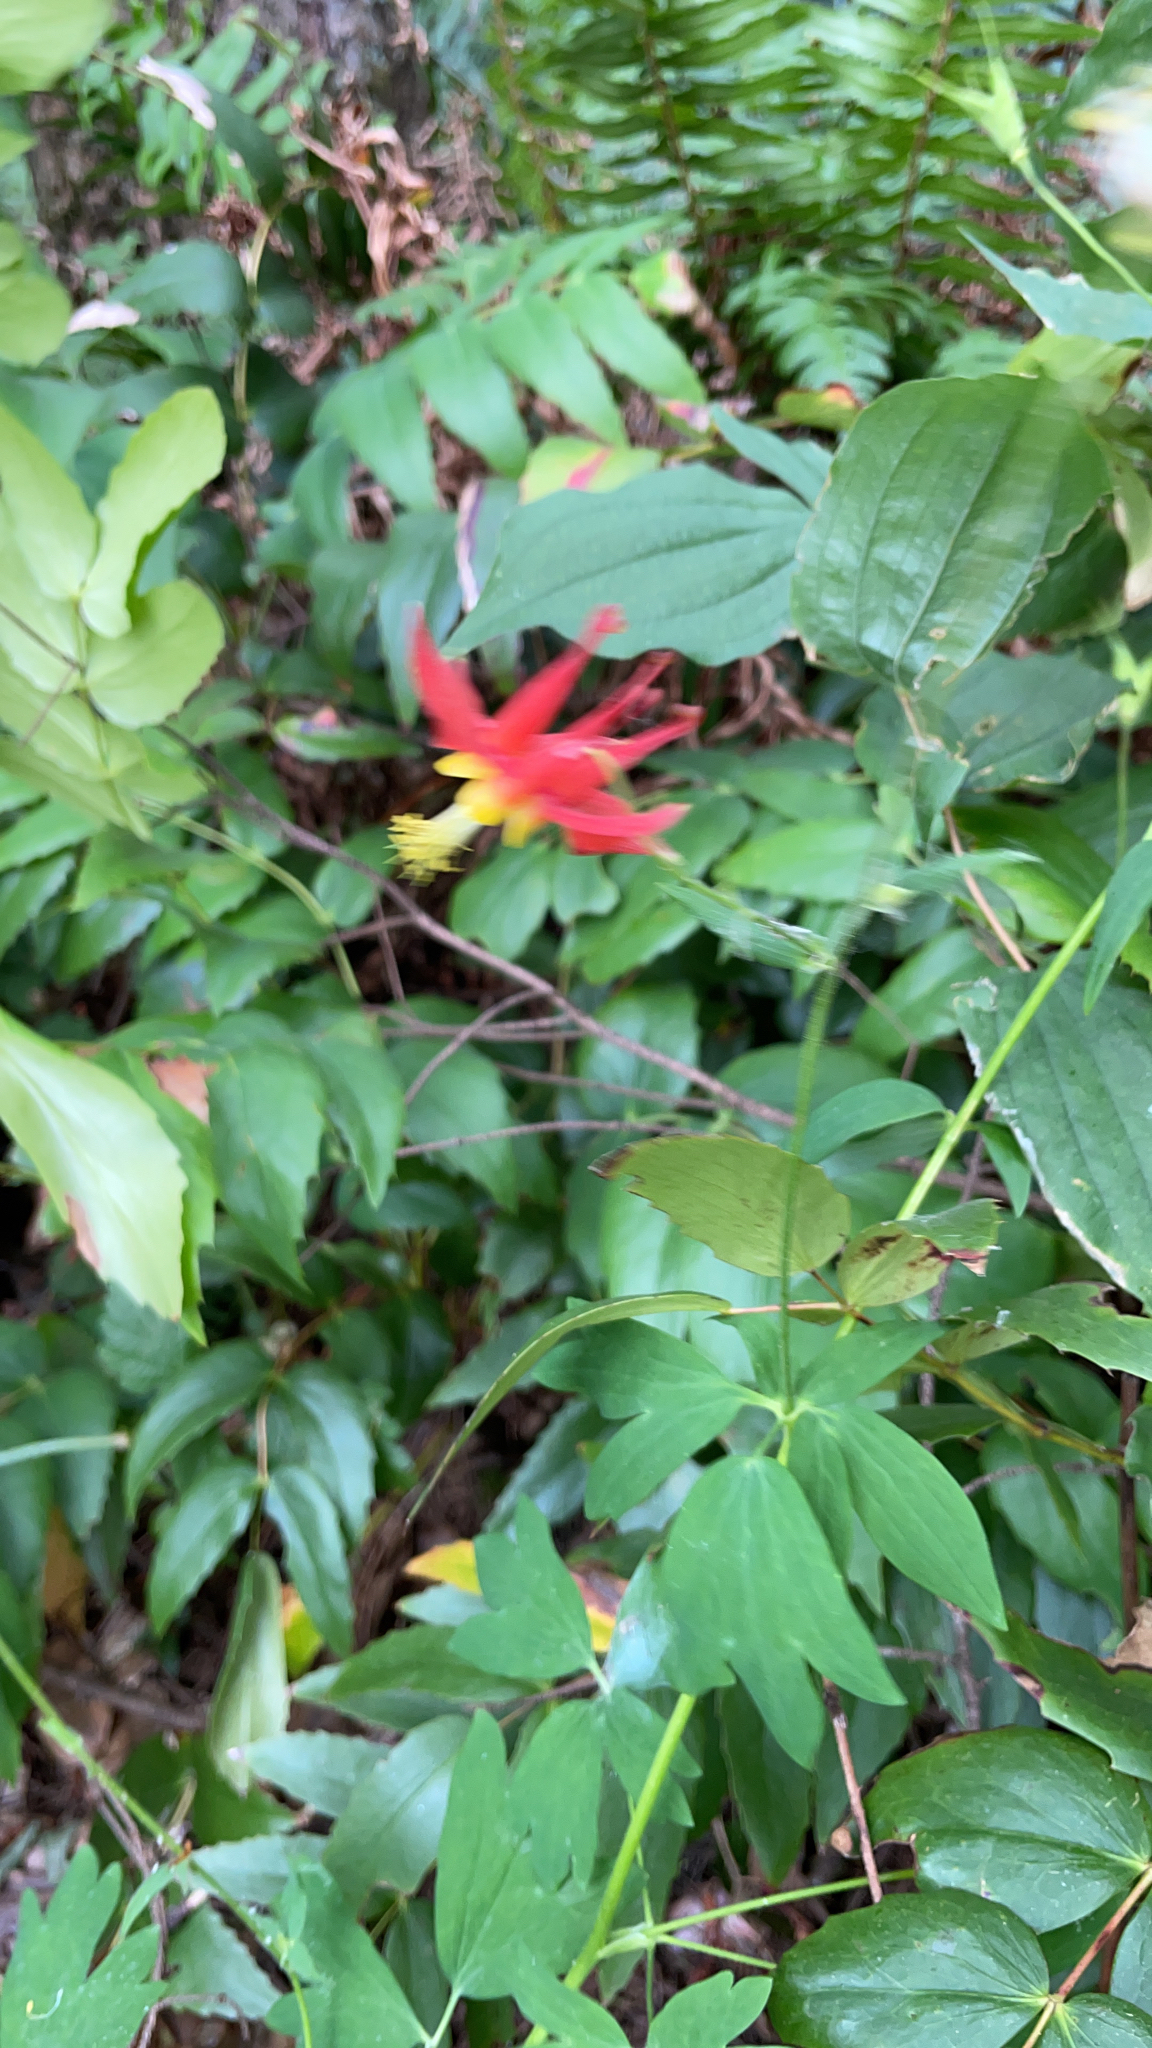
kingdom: Plantae
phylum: Tracheophyta
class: Magnoliopsida
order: Ranunculales
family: Ranunculaceae
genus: Aquilegia
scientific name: Aquilegia formosa
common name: Sitka columbine
